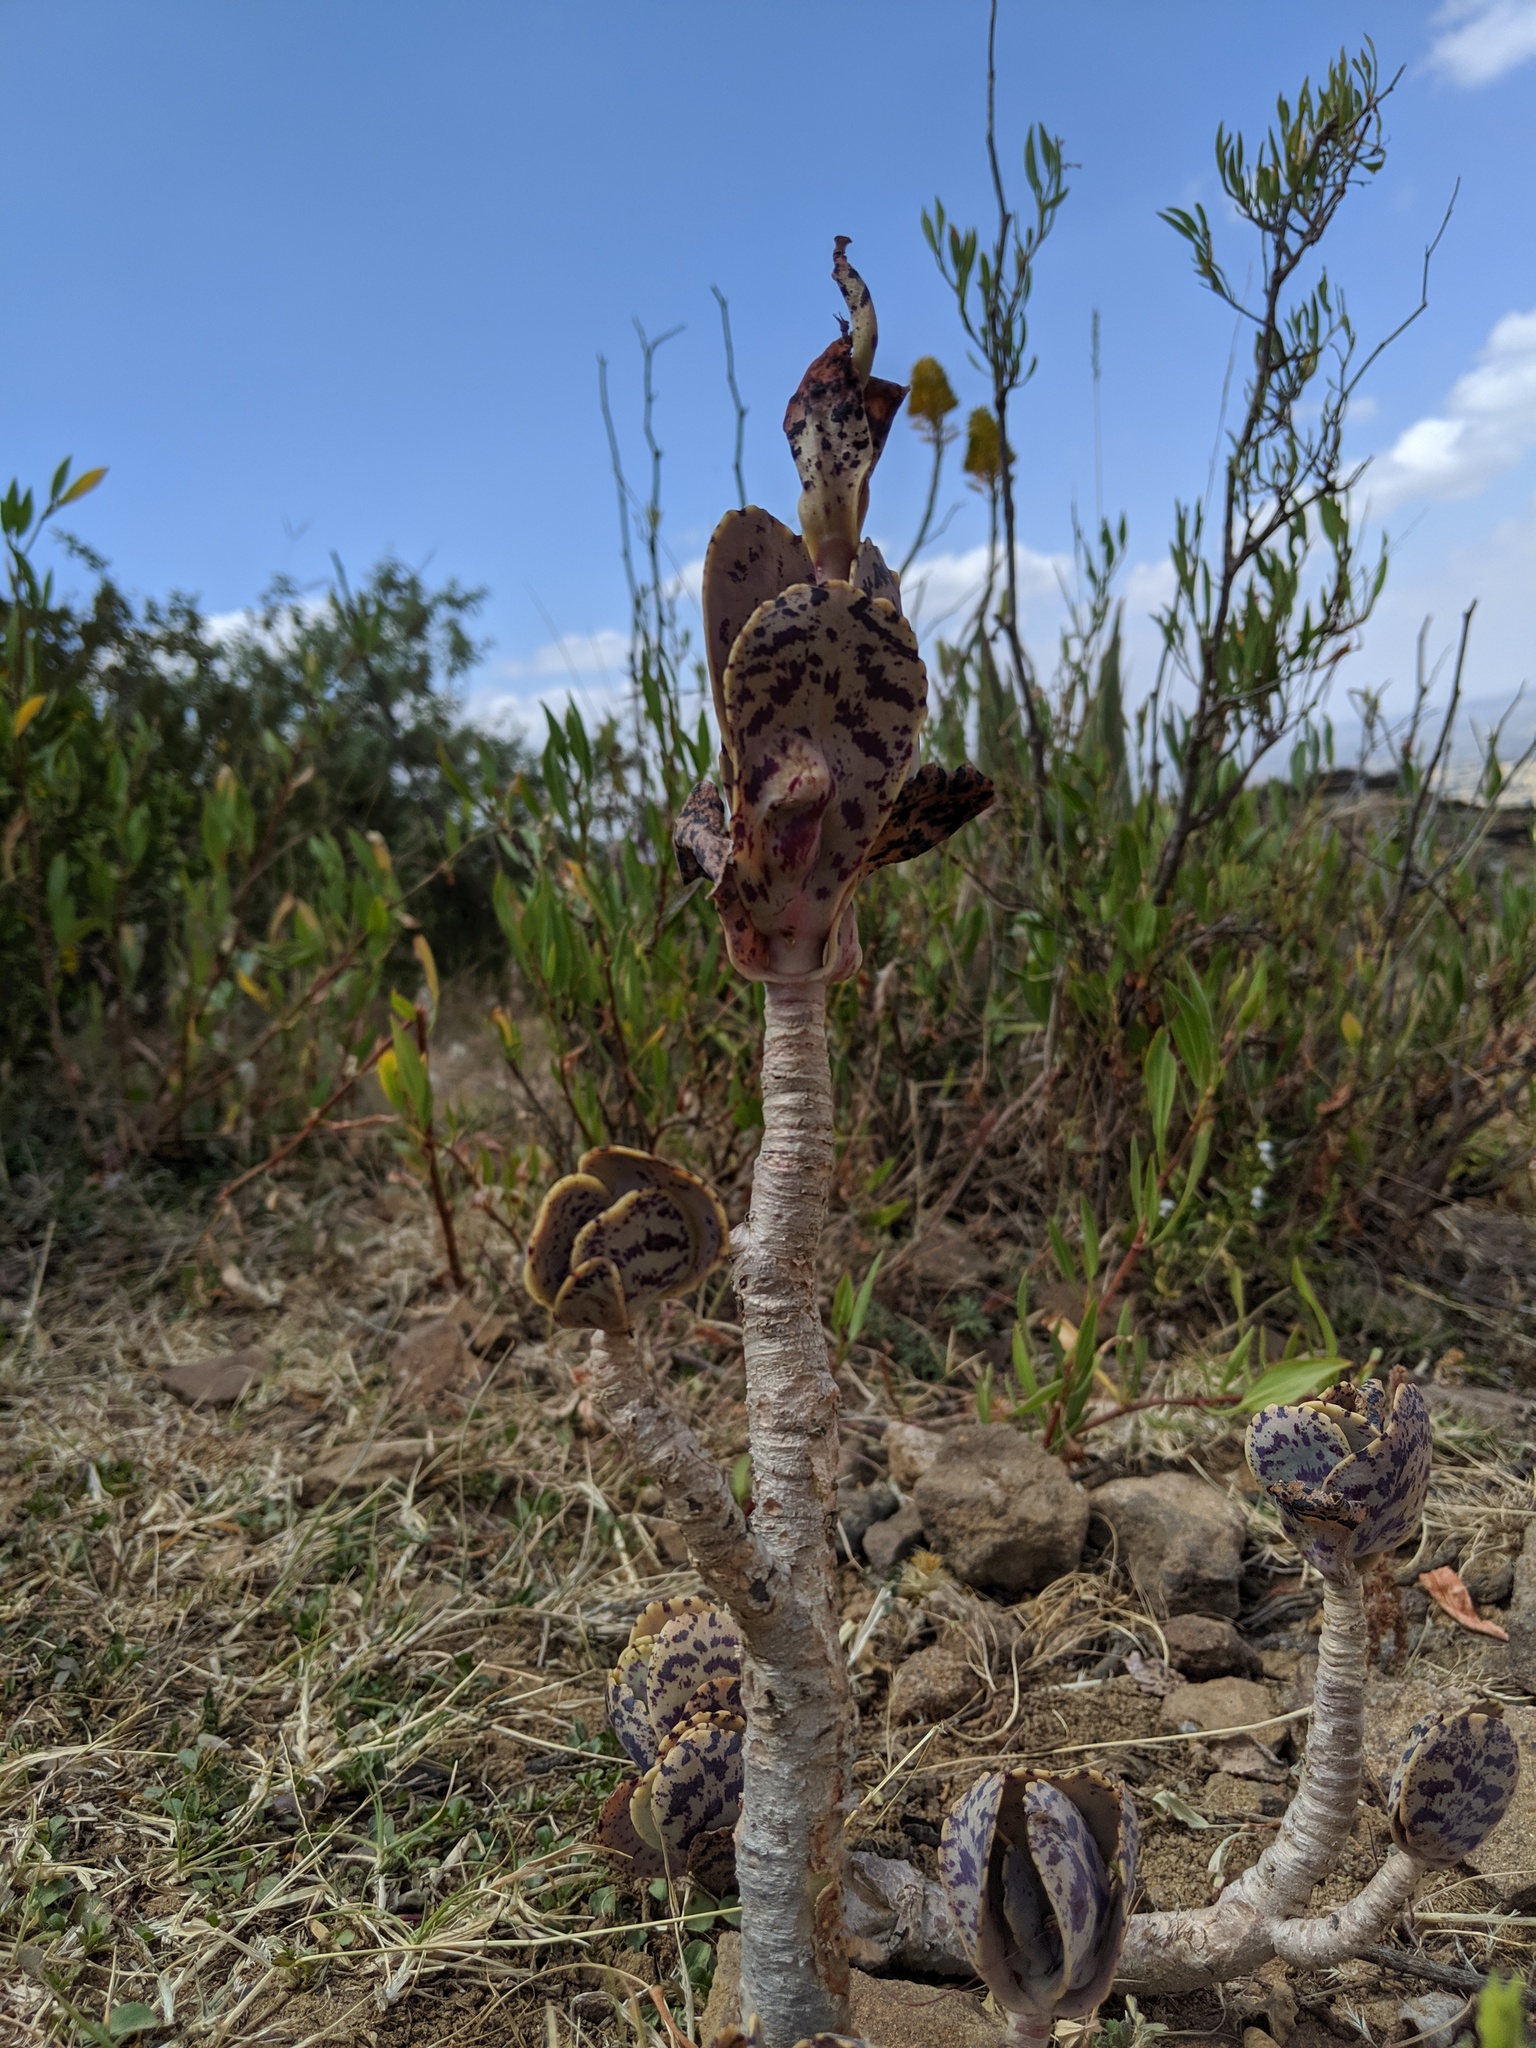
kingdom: Plantae
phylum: Tracheophyta
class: Magnoliopsida
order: Saxifragales
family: Crassulaceae
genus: Kalanchoe
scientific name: Kalanchoe marmorata
